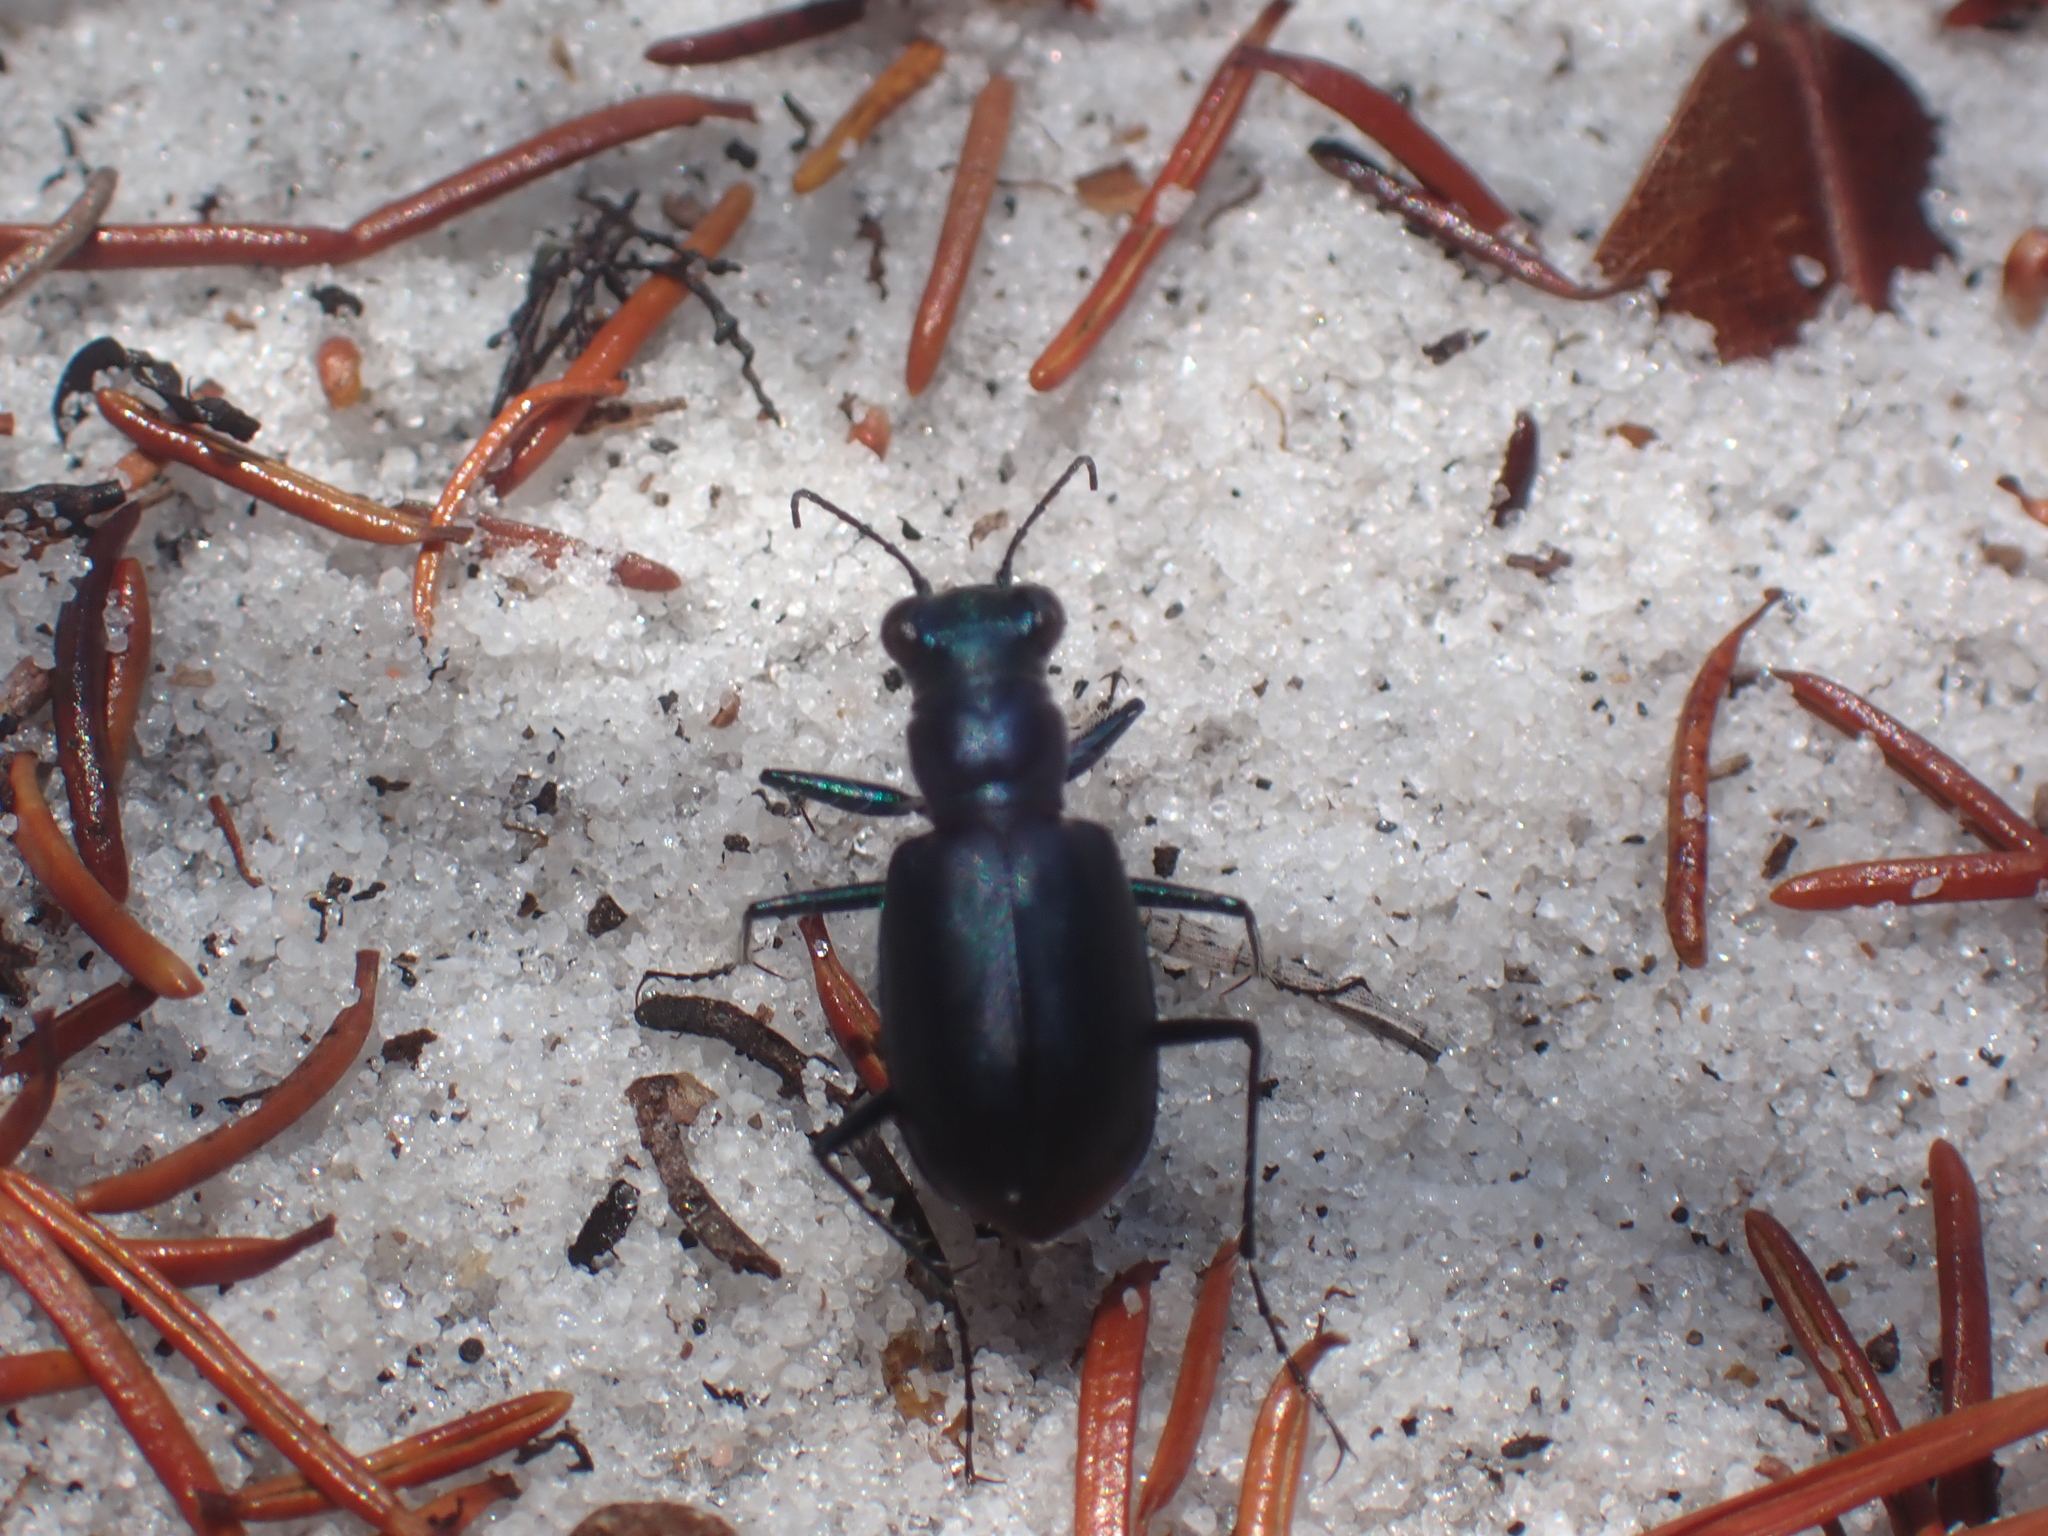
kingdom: Animalia
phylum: Arthropoda
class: Insecta
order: Coleoptera
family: Carabidae
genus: Cicindela
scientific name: Cicindela scutellaris
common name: Festive tiger beetle
